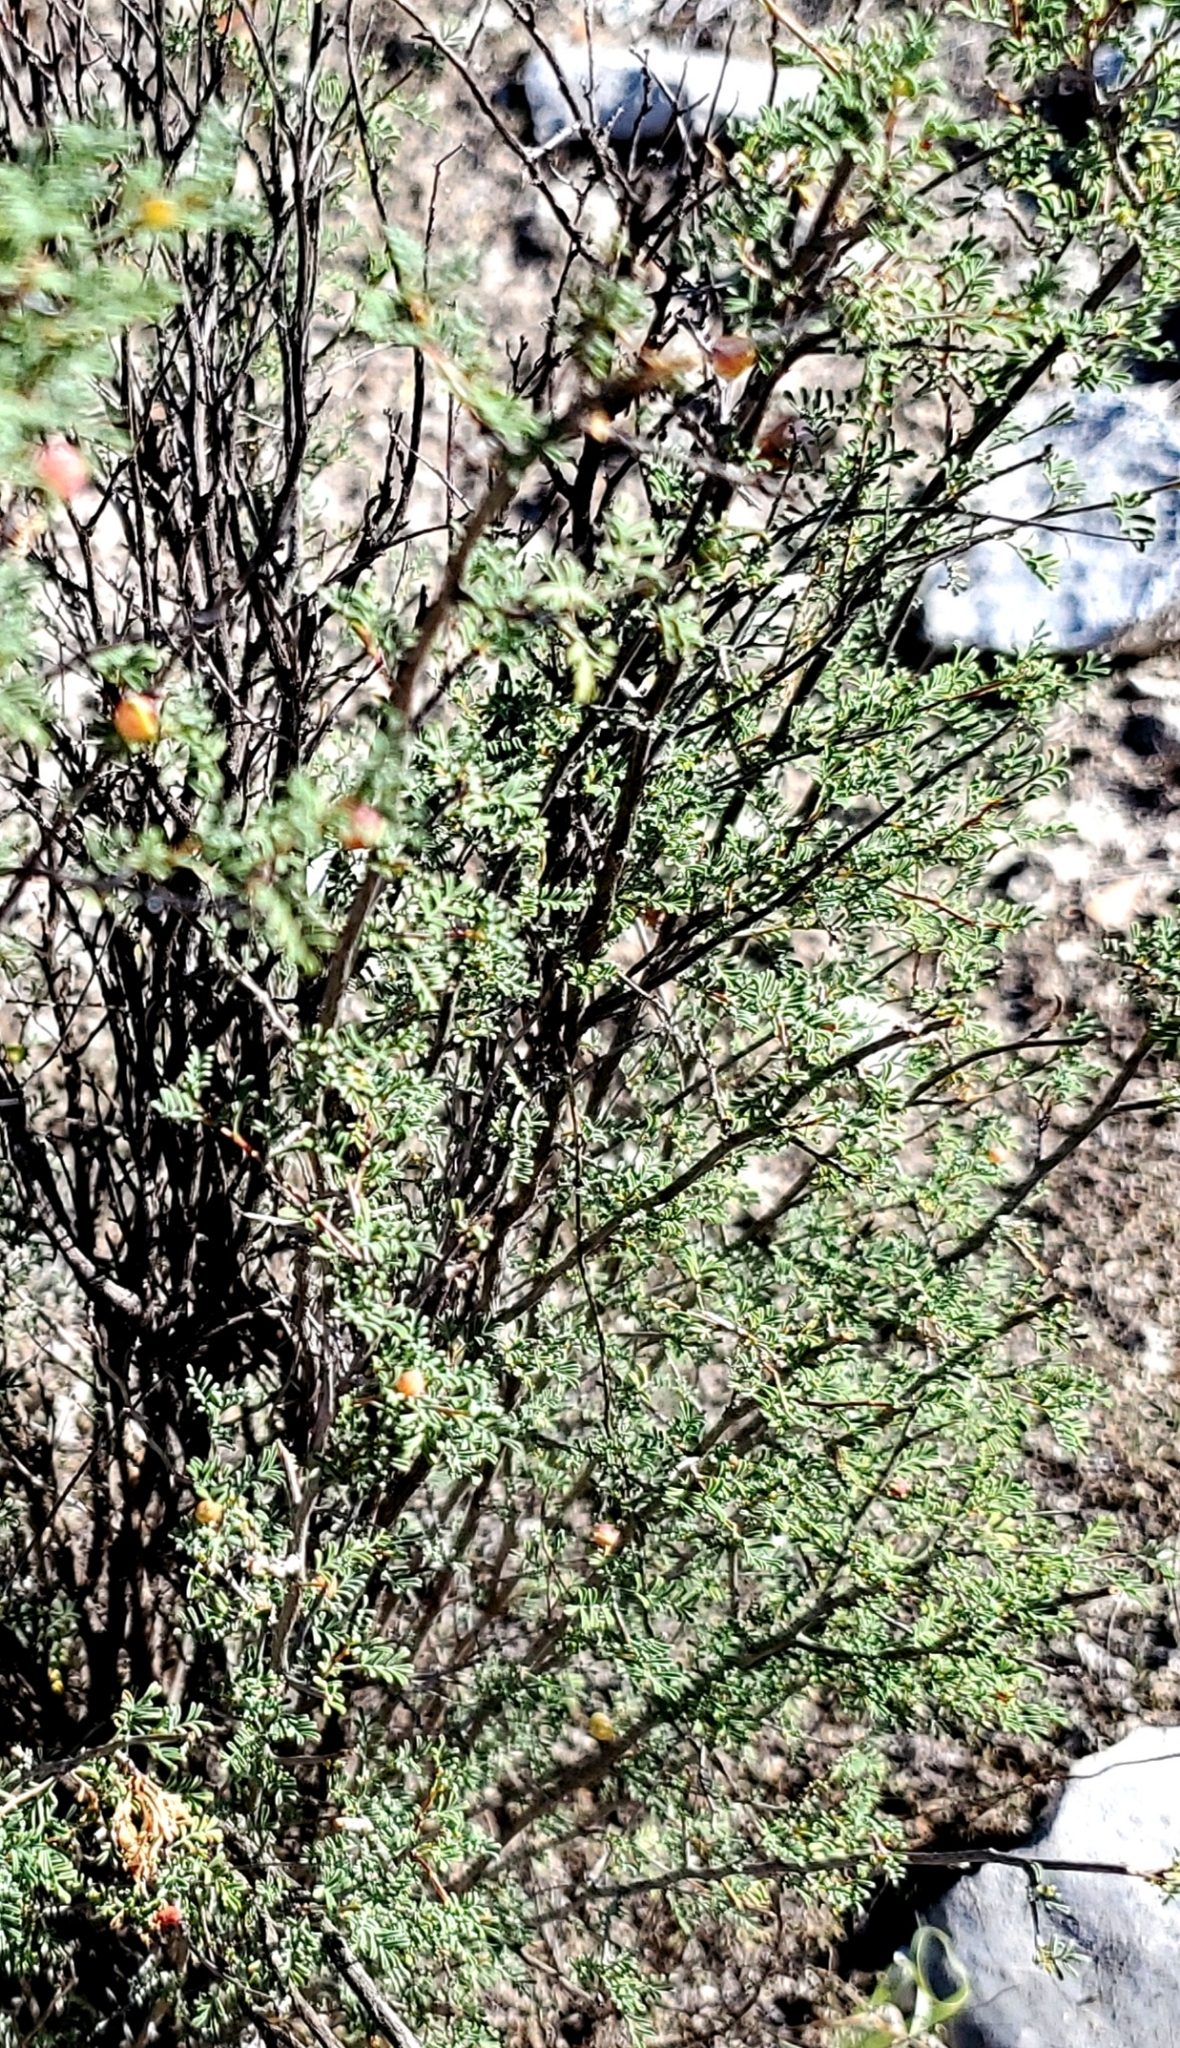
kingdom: Plantae
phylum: Tracheophyta
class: Magnoliopsida
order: Fabales
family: Fabaceae
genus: Dalea
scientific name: Dalea formosa
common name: Feather-plume dalea
